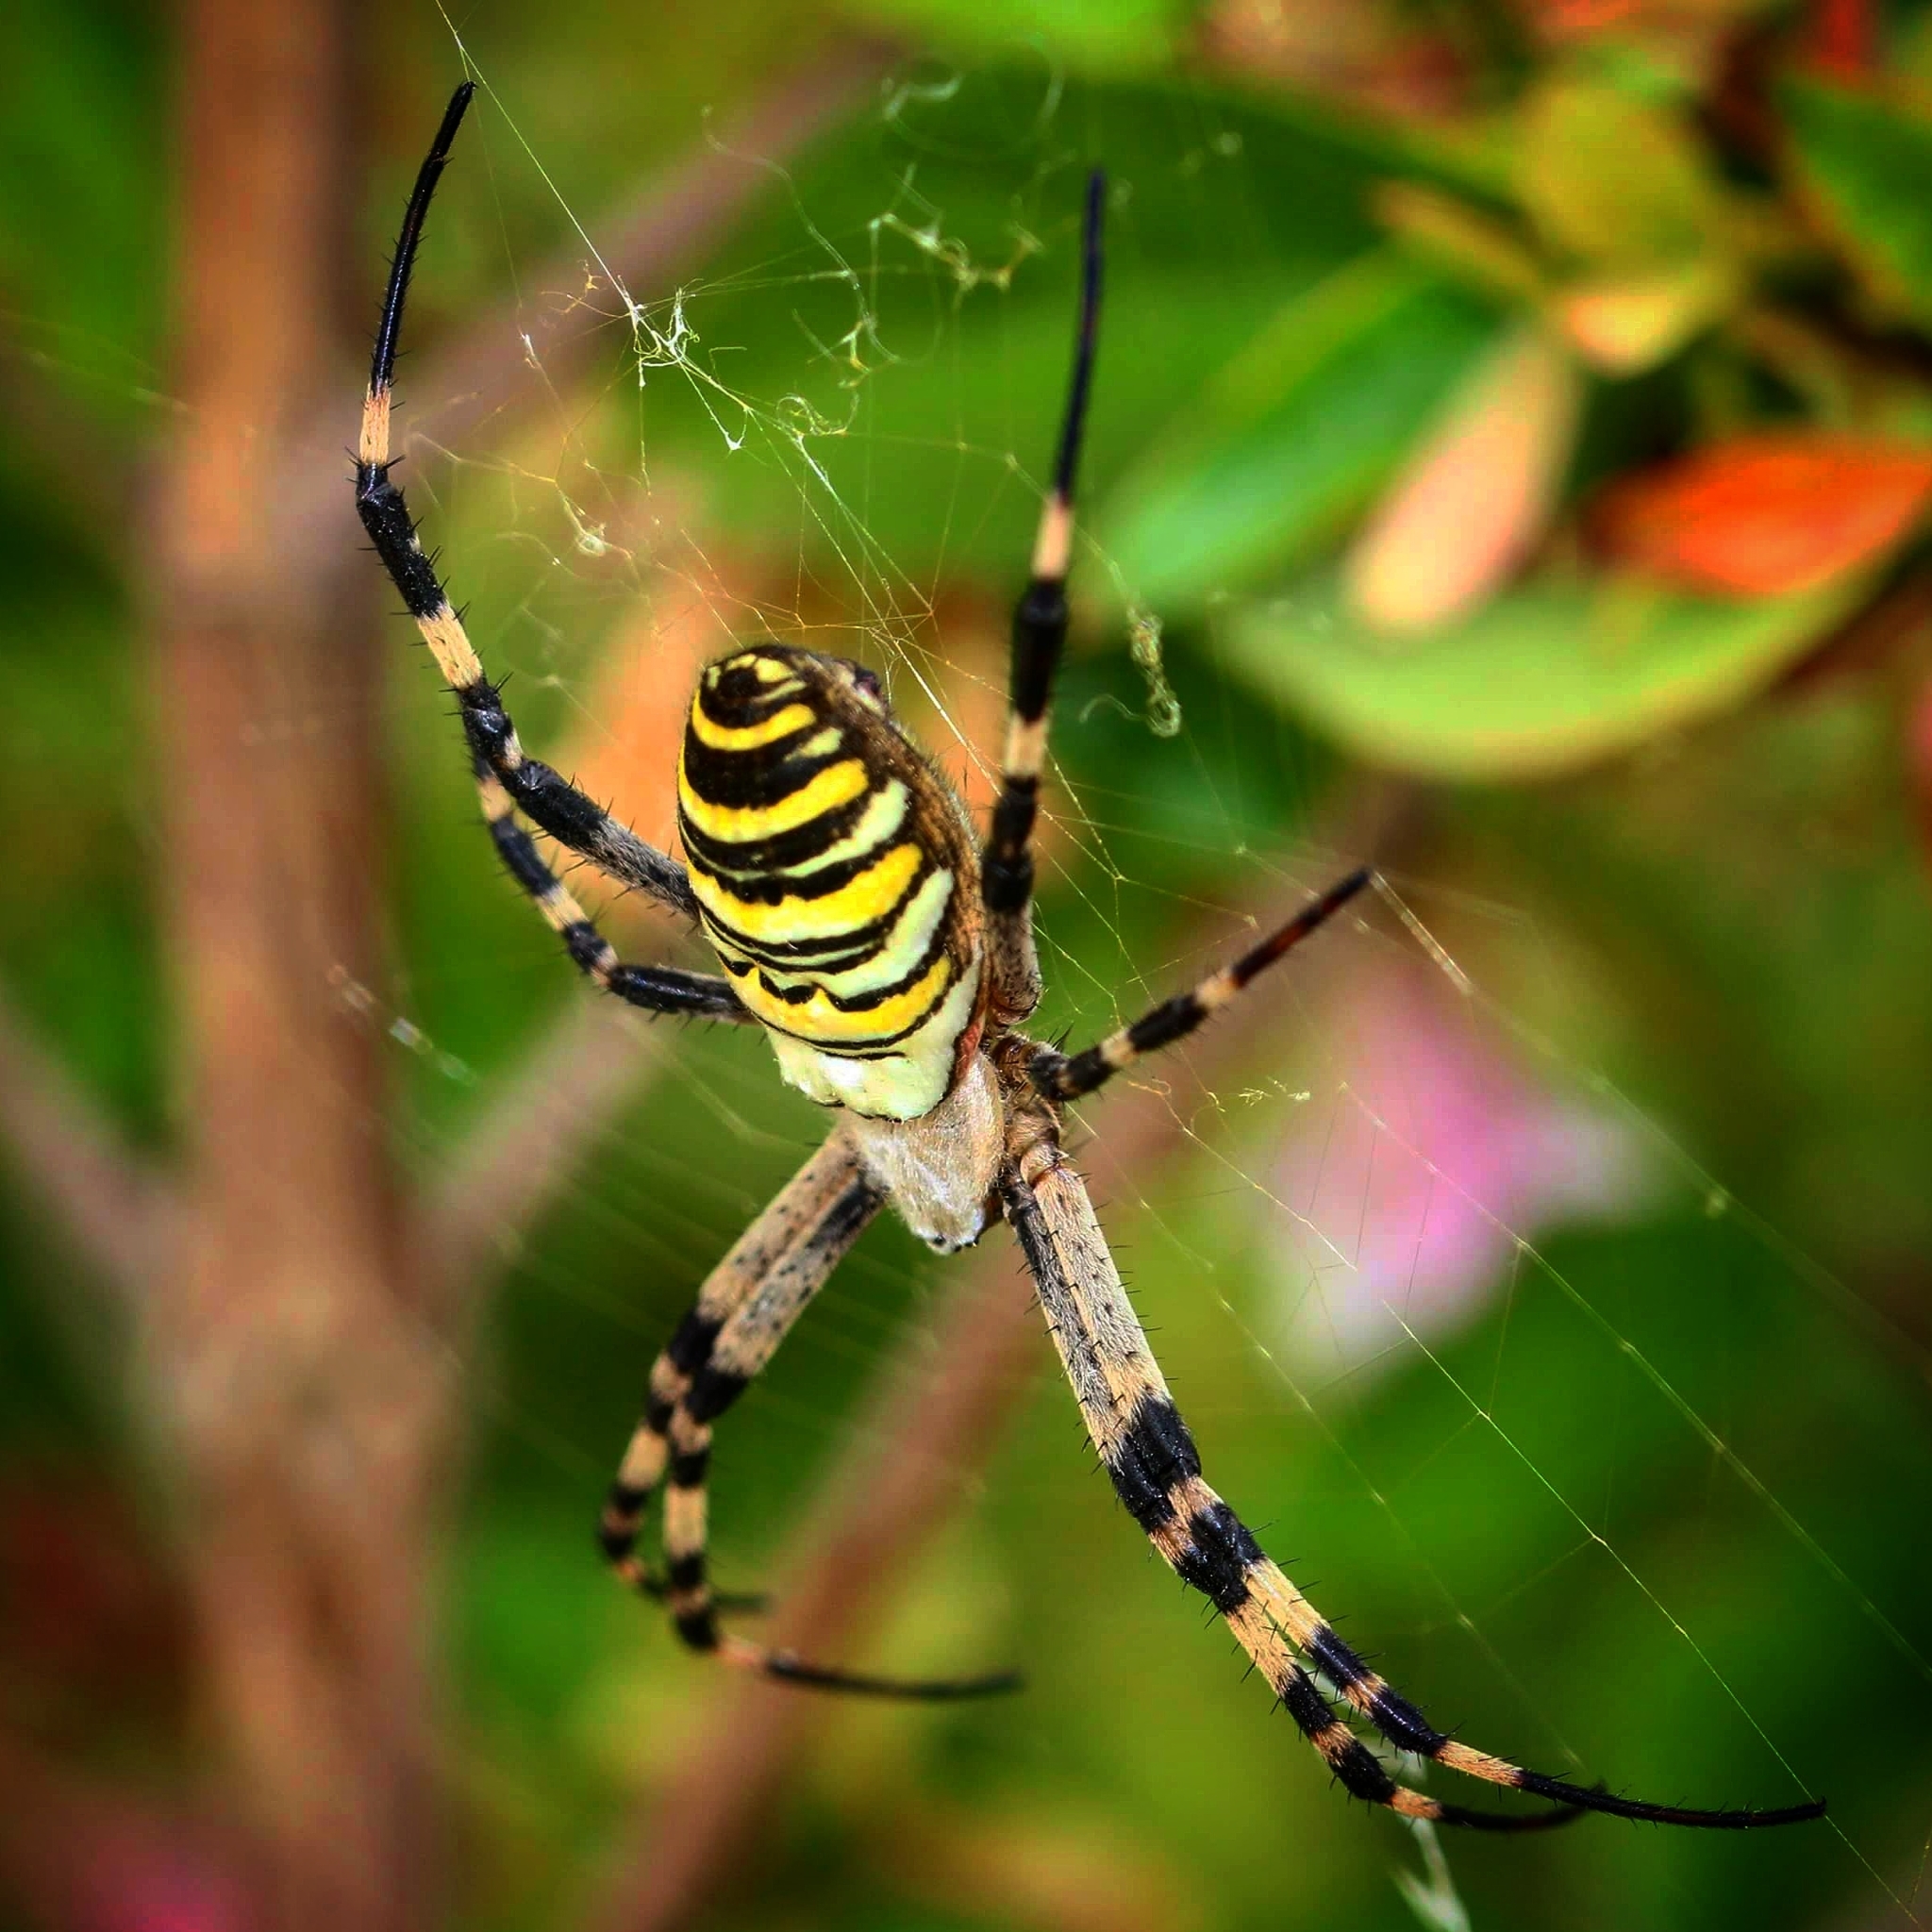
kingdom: Animalia
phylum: Arthropoda
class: Arachnida
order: Araneae
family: Araneidae
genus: Argiope
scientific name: Argiope bruennichi
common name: Wasp spider
